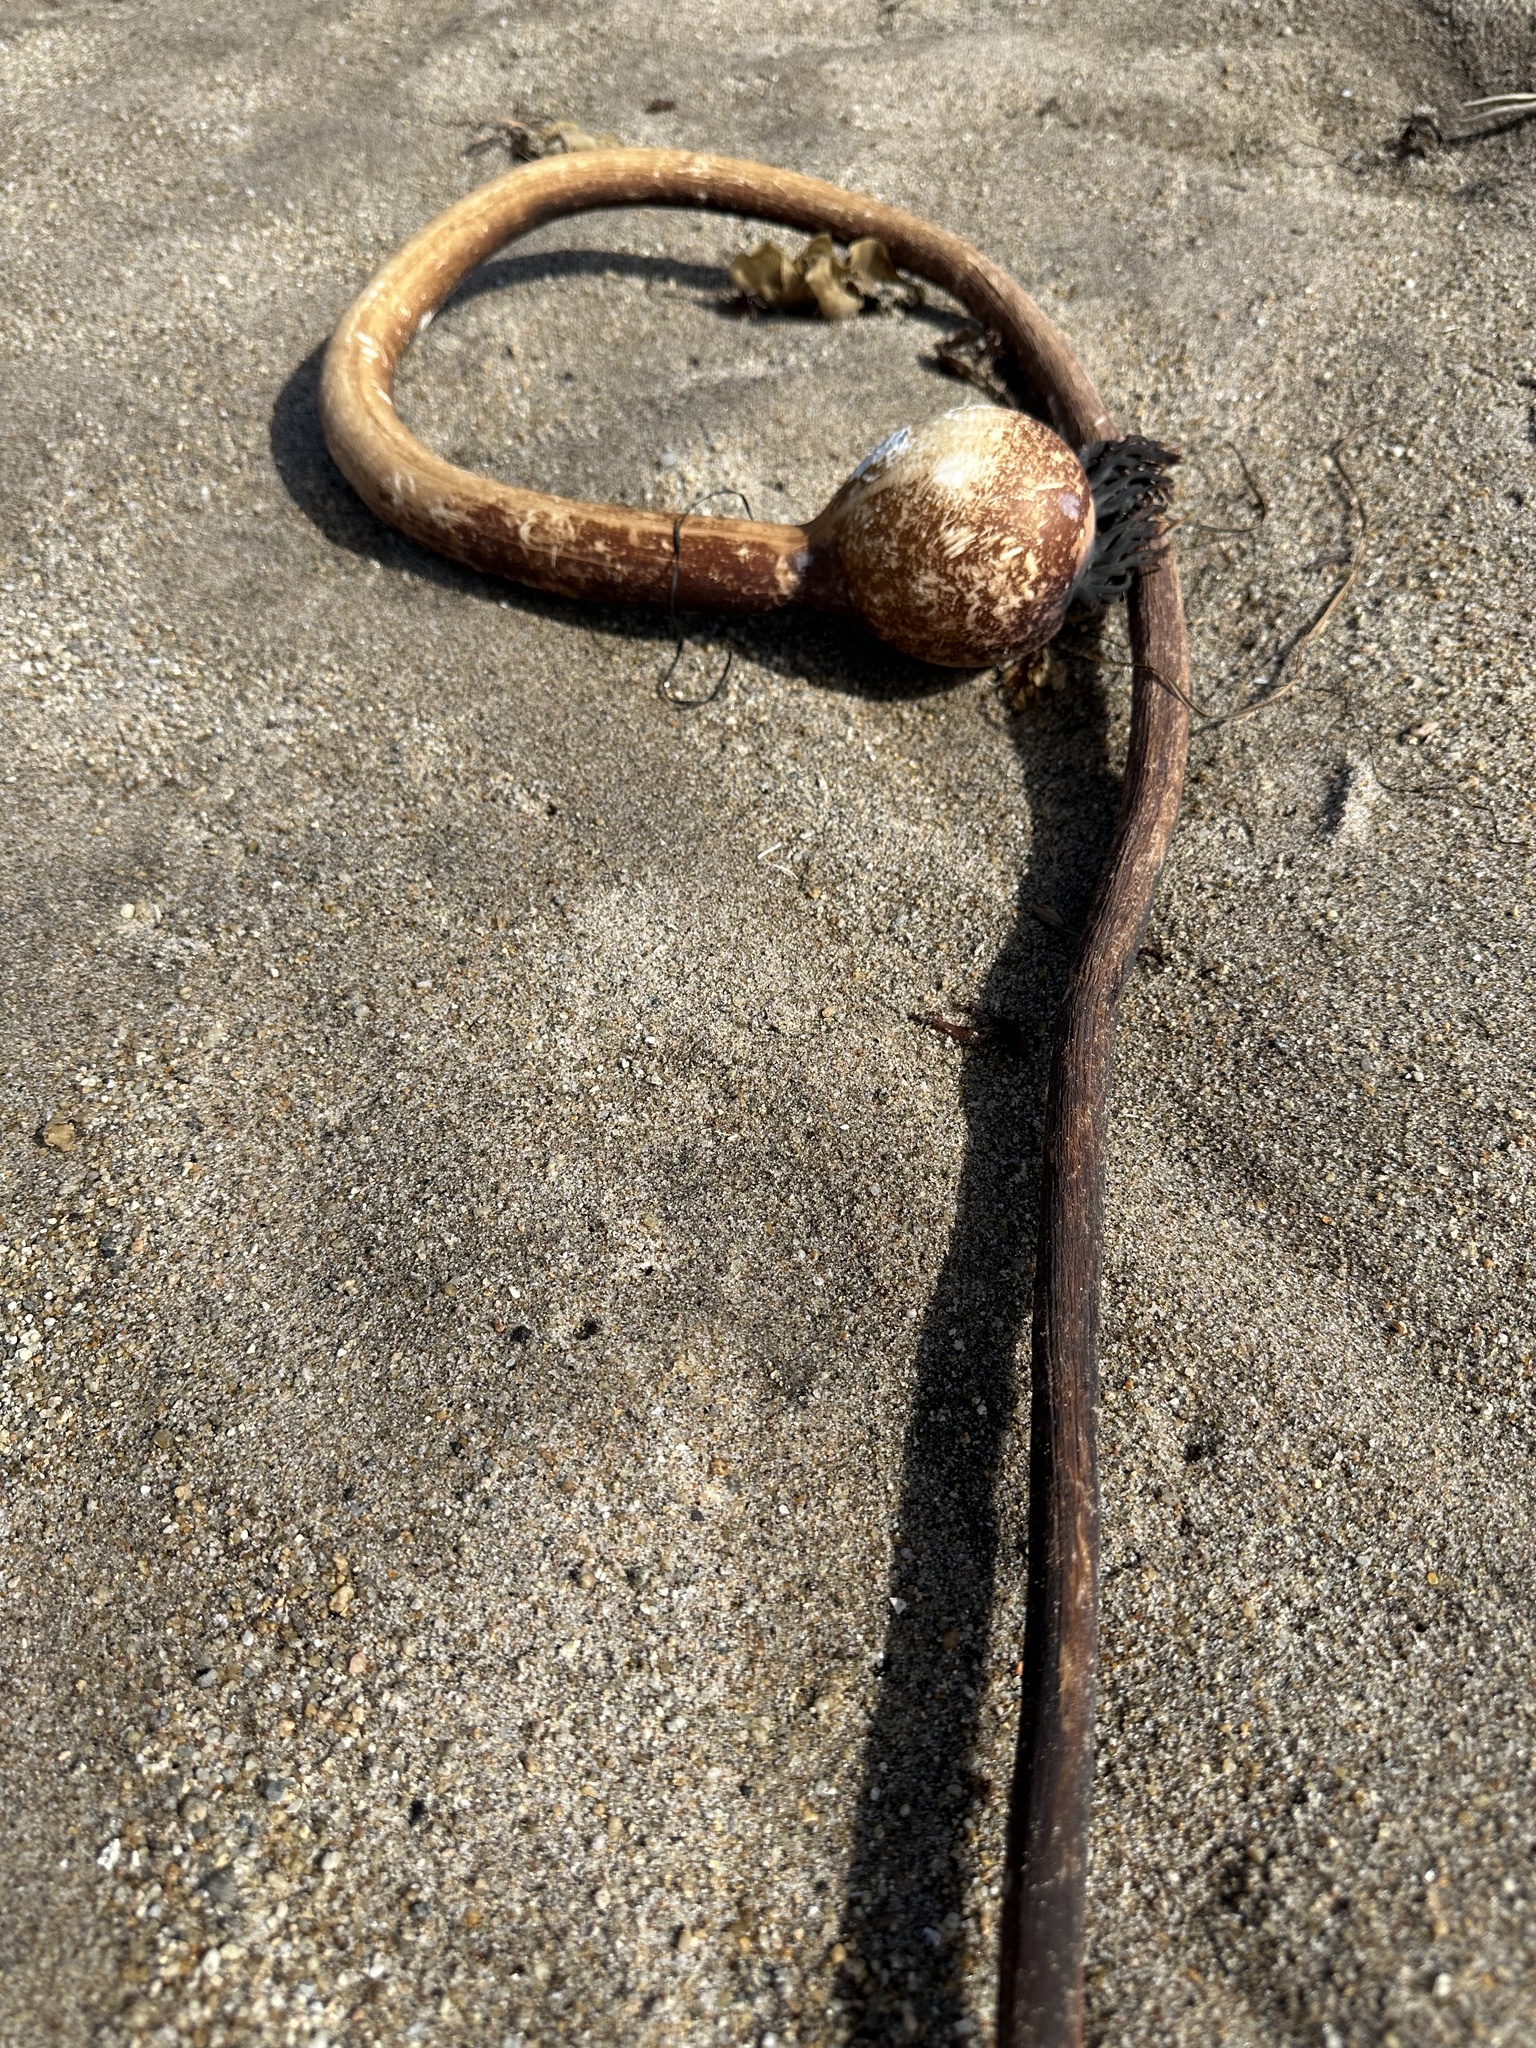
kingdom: Chromista
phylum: Ochrophyta
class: Phaeophyceae
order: Laminariales
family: Laminariaceae
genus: Nereocystis
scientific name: Nereocystis luetkeana
